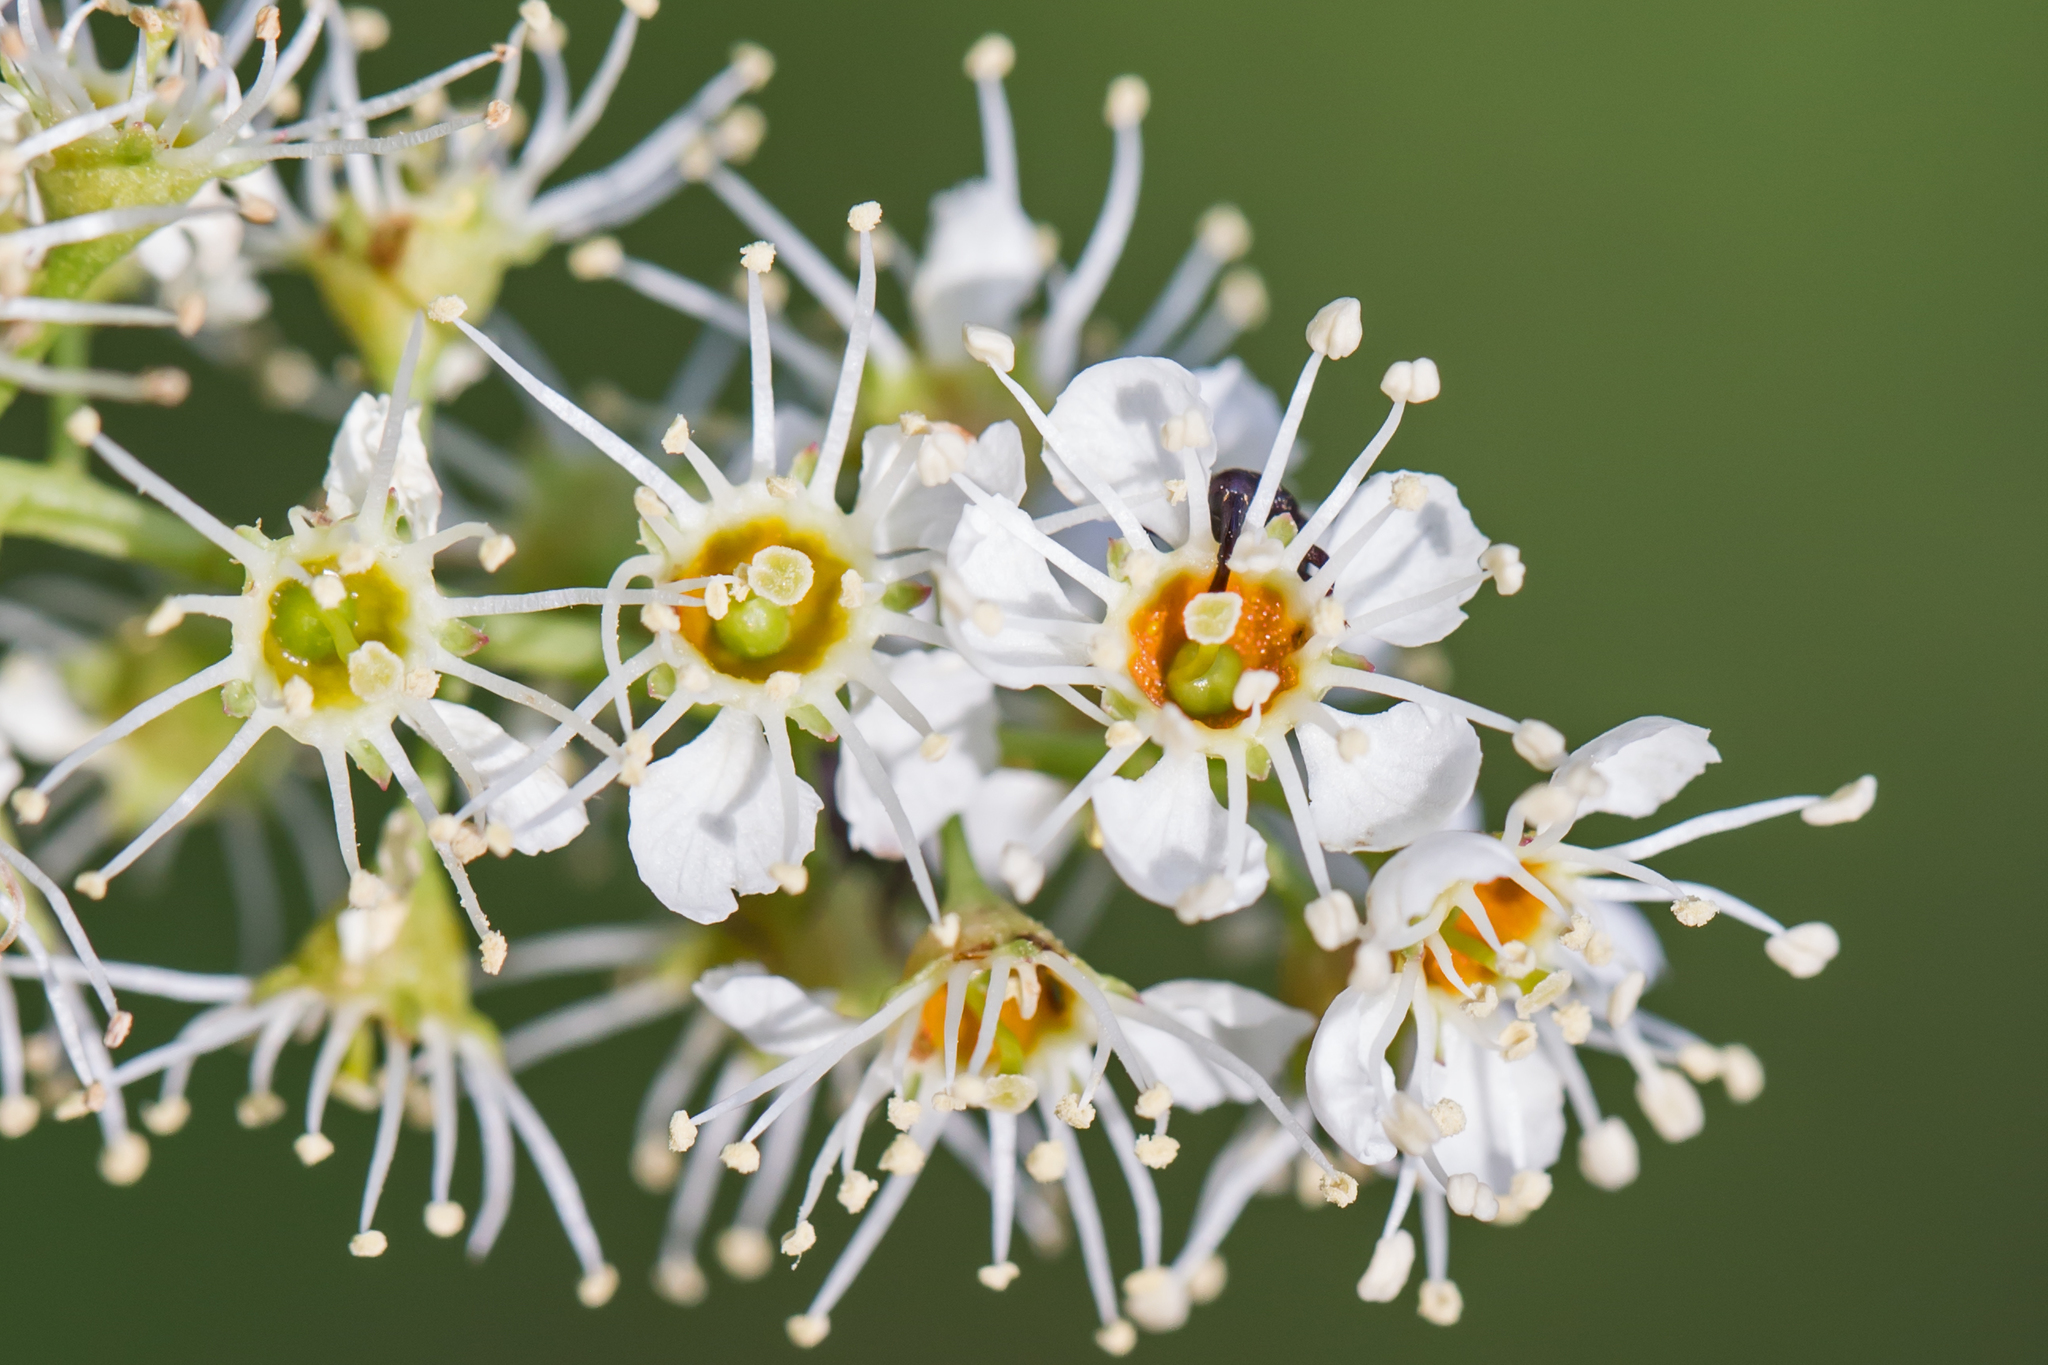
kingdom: Plantae
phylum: Tracheophyta
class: Magnoliopsida
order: Rosales
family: Rosaceae
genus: Prunus
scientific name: Prunus serotina
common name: Black cherry
